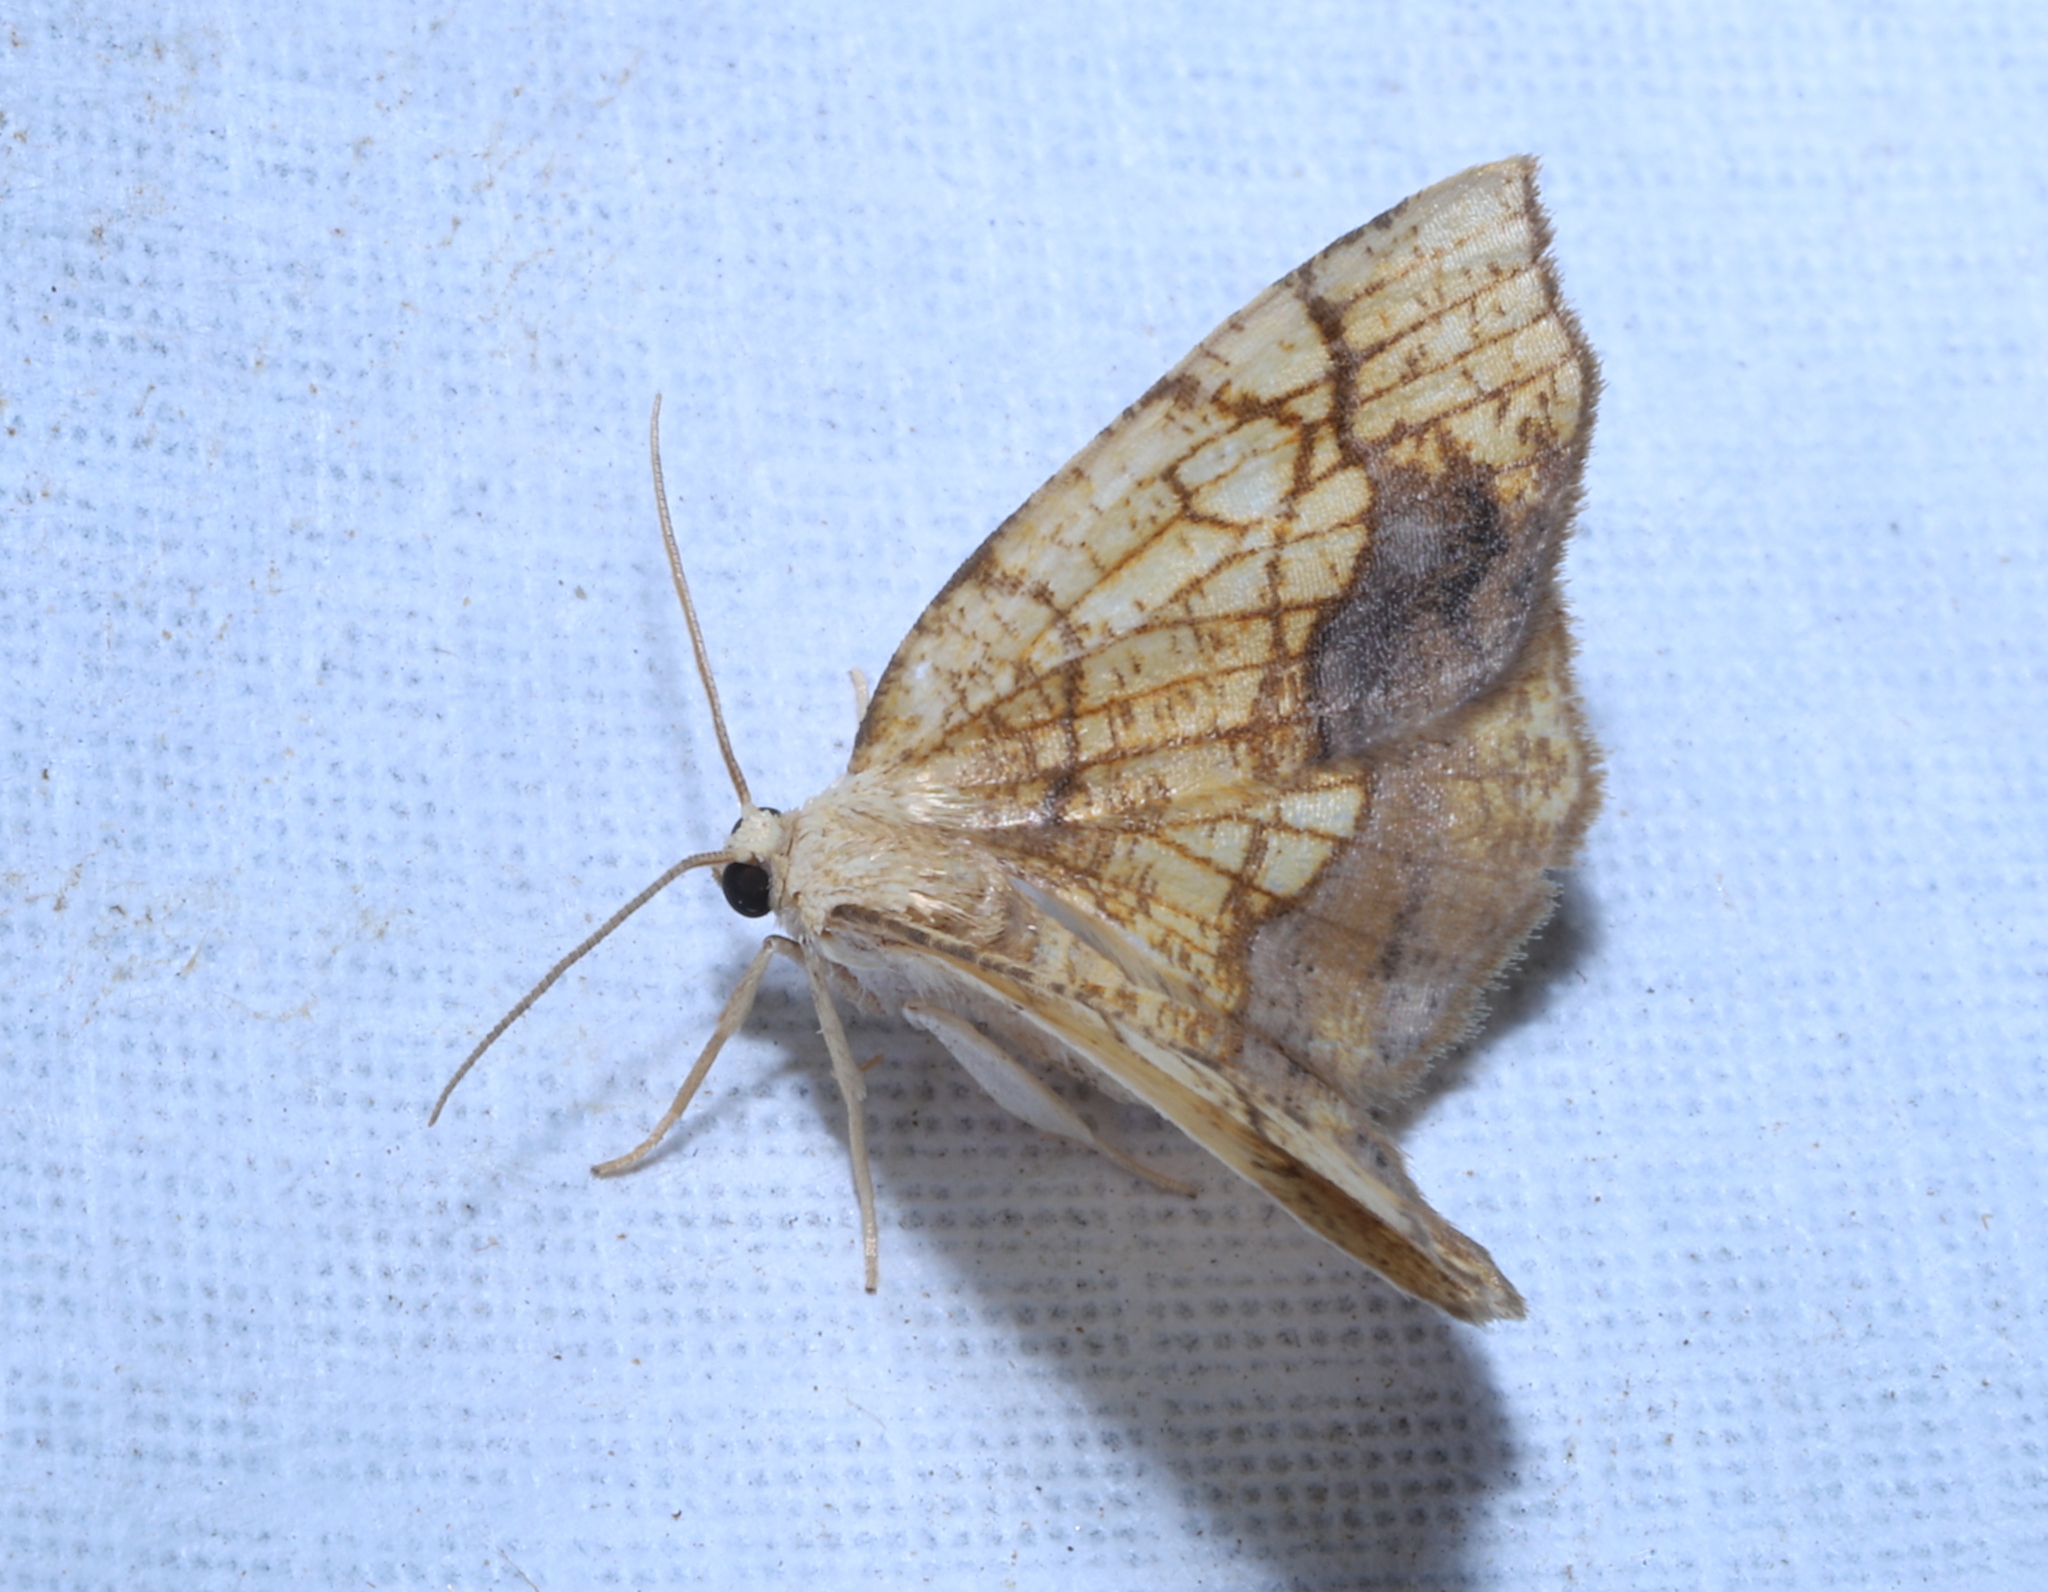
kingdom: Animalia
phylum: Arthropoda
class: Insecta
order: Lepidoptera
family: Geometridae
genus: Nematocampa
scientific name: Nematocampa resistaria
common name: Horned spanworm moth
